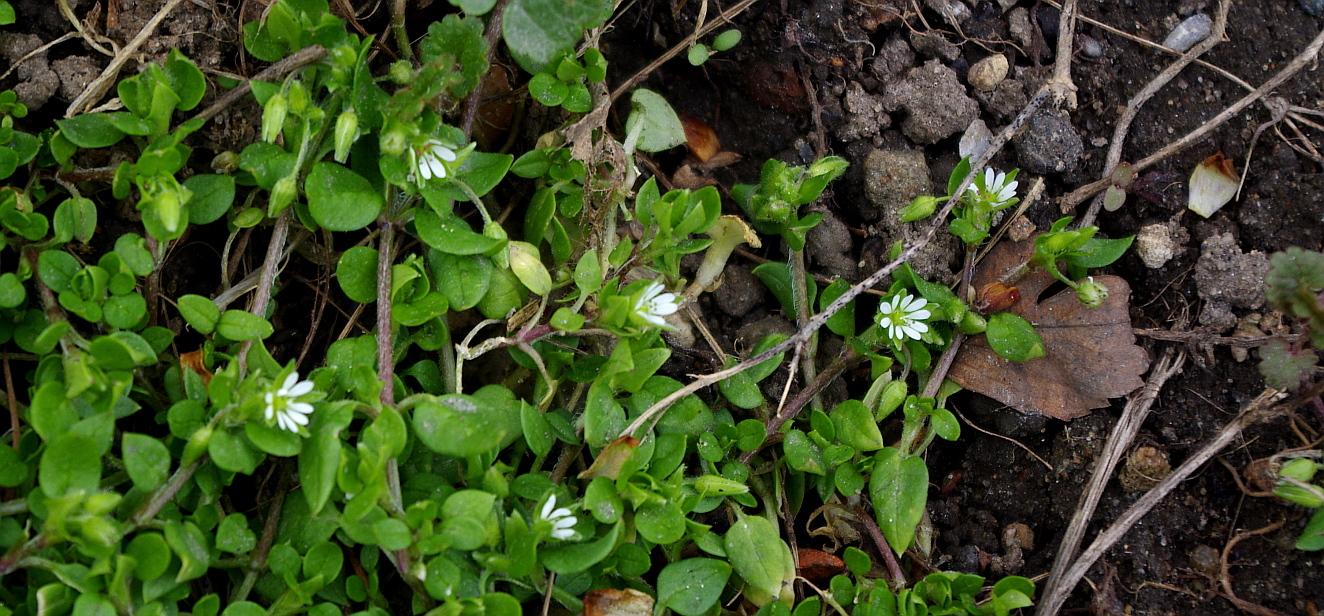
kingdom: Plantae
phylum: Tracheophyta
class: Magnoliopsida
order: Caryophyllales
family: Caryophyllaceae
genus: Stellaria
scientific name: Stellaria media
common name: Common chickweed
